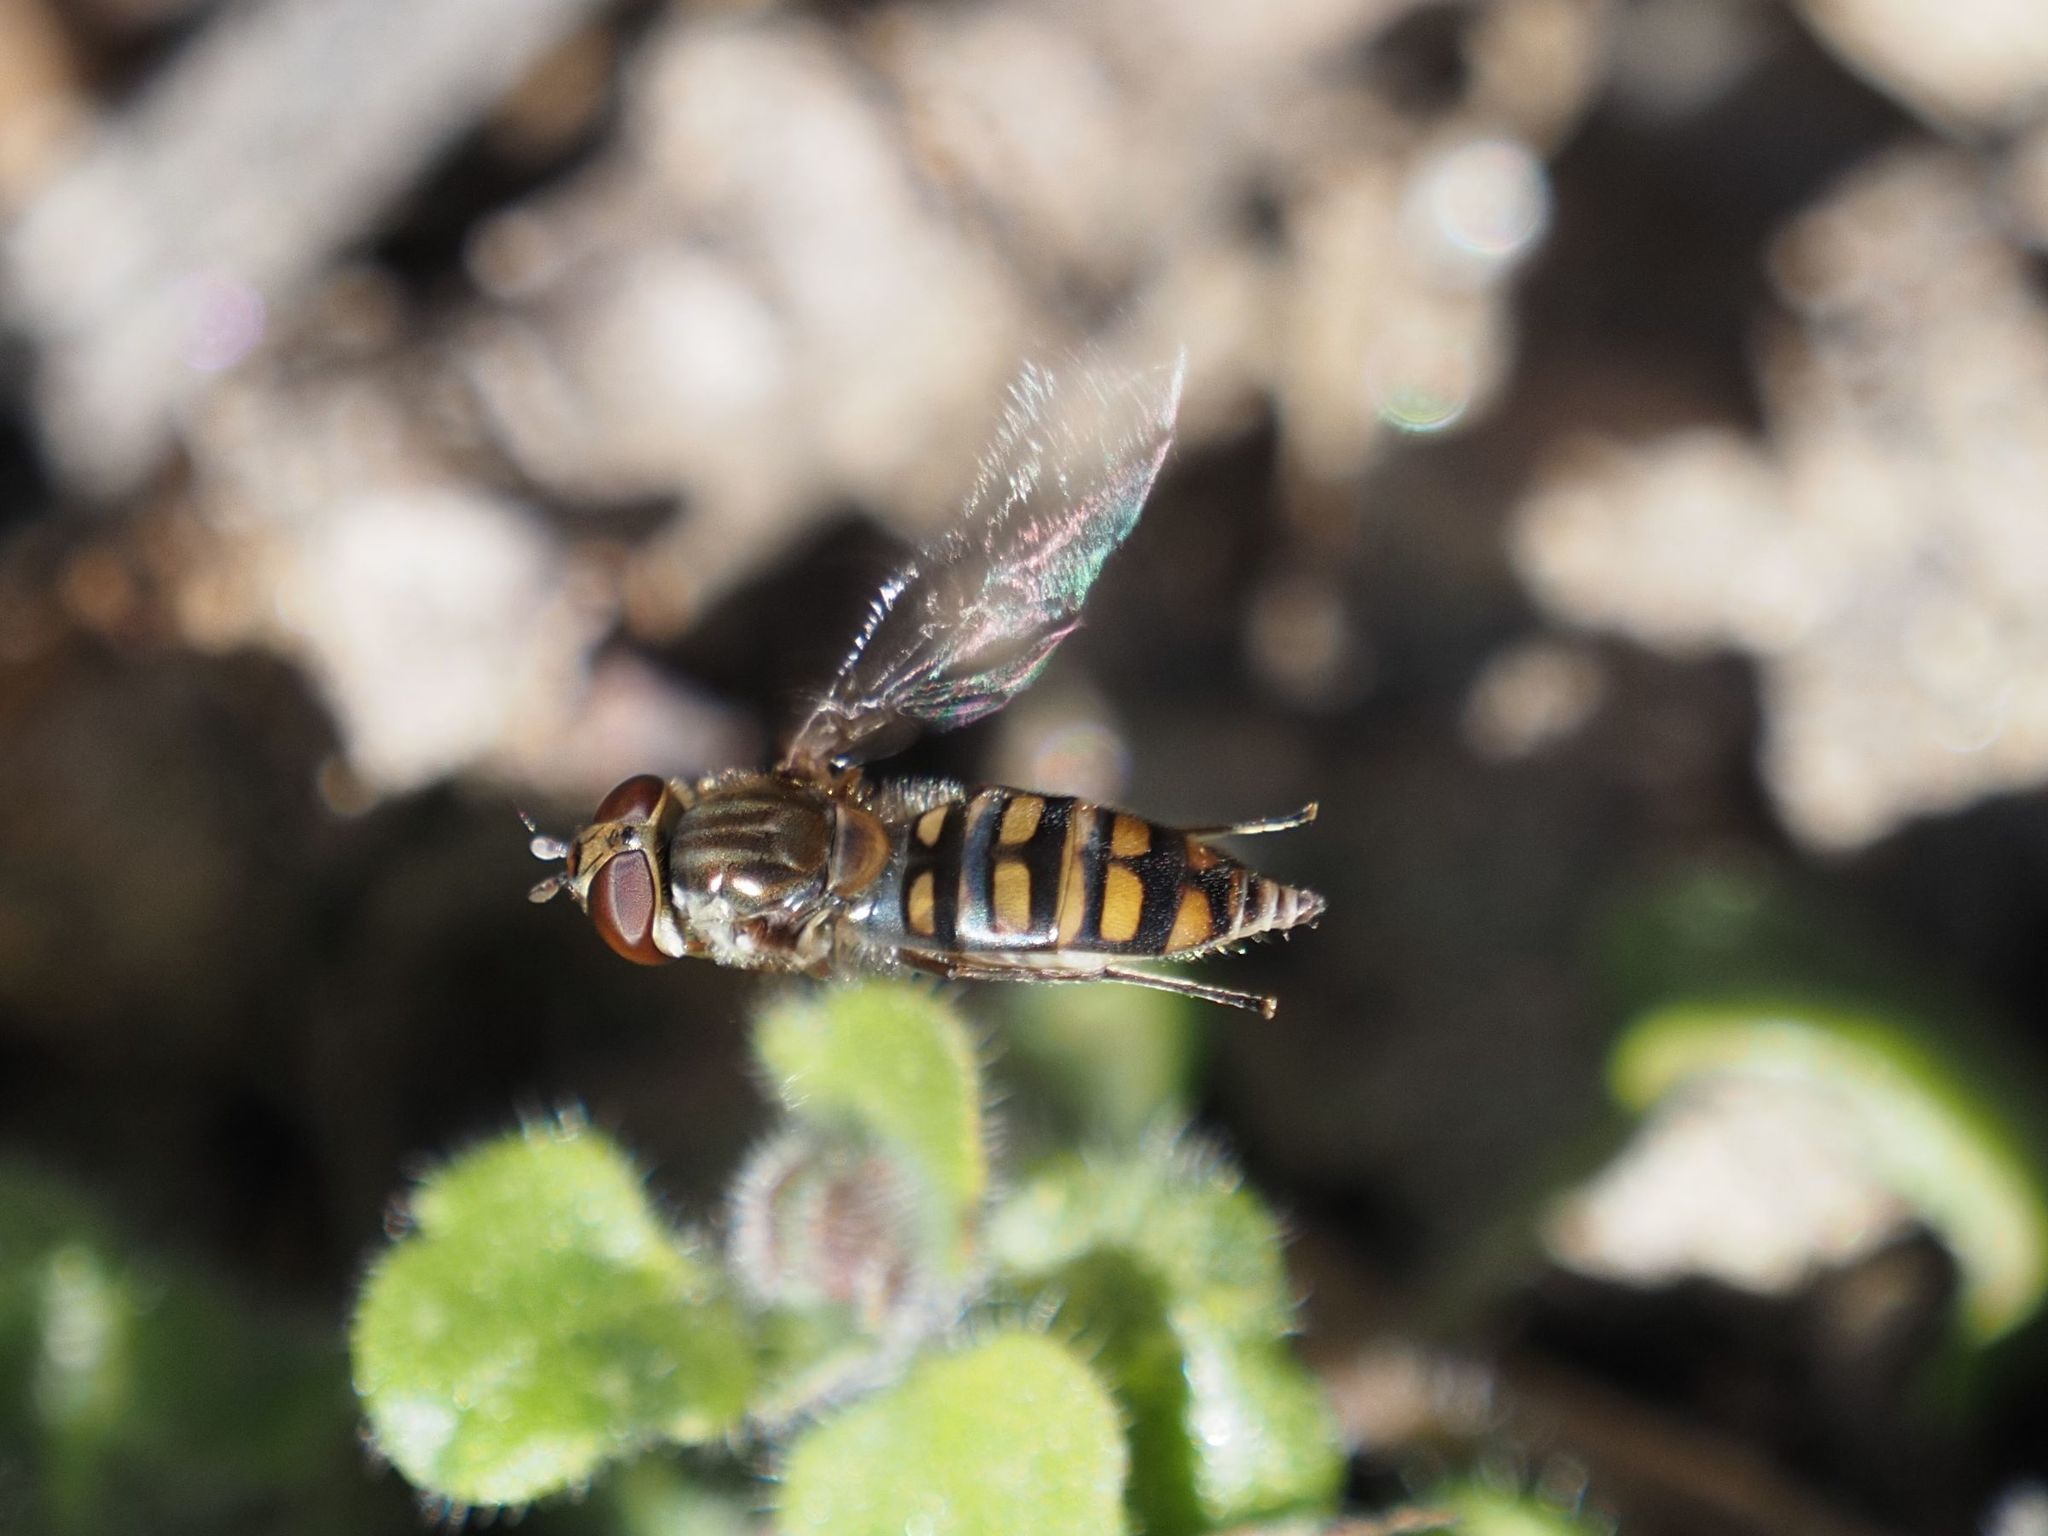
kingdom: Animalia
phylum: Arthropoda
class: Insecta
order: Diptera
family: Syrphidae
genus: Episyrphus
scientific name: Episyrphus balteatus
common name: Marmalade hoverfly
